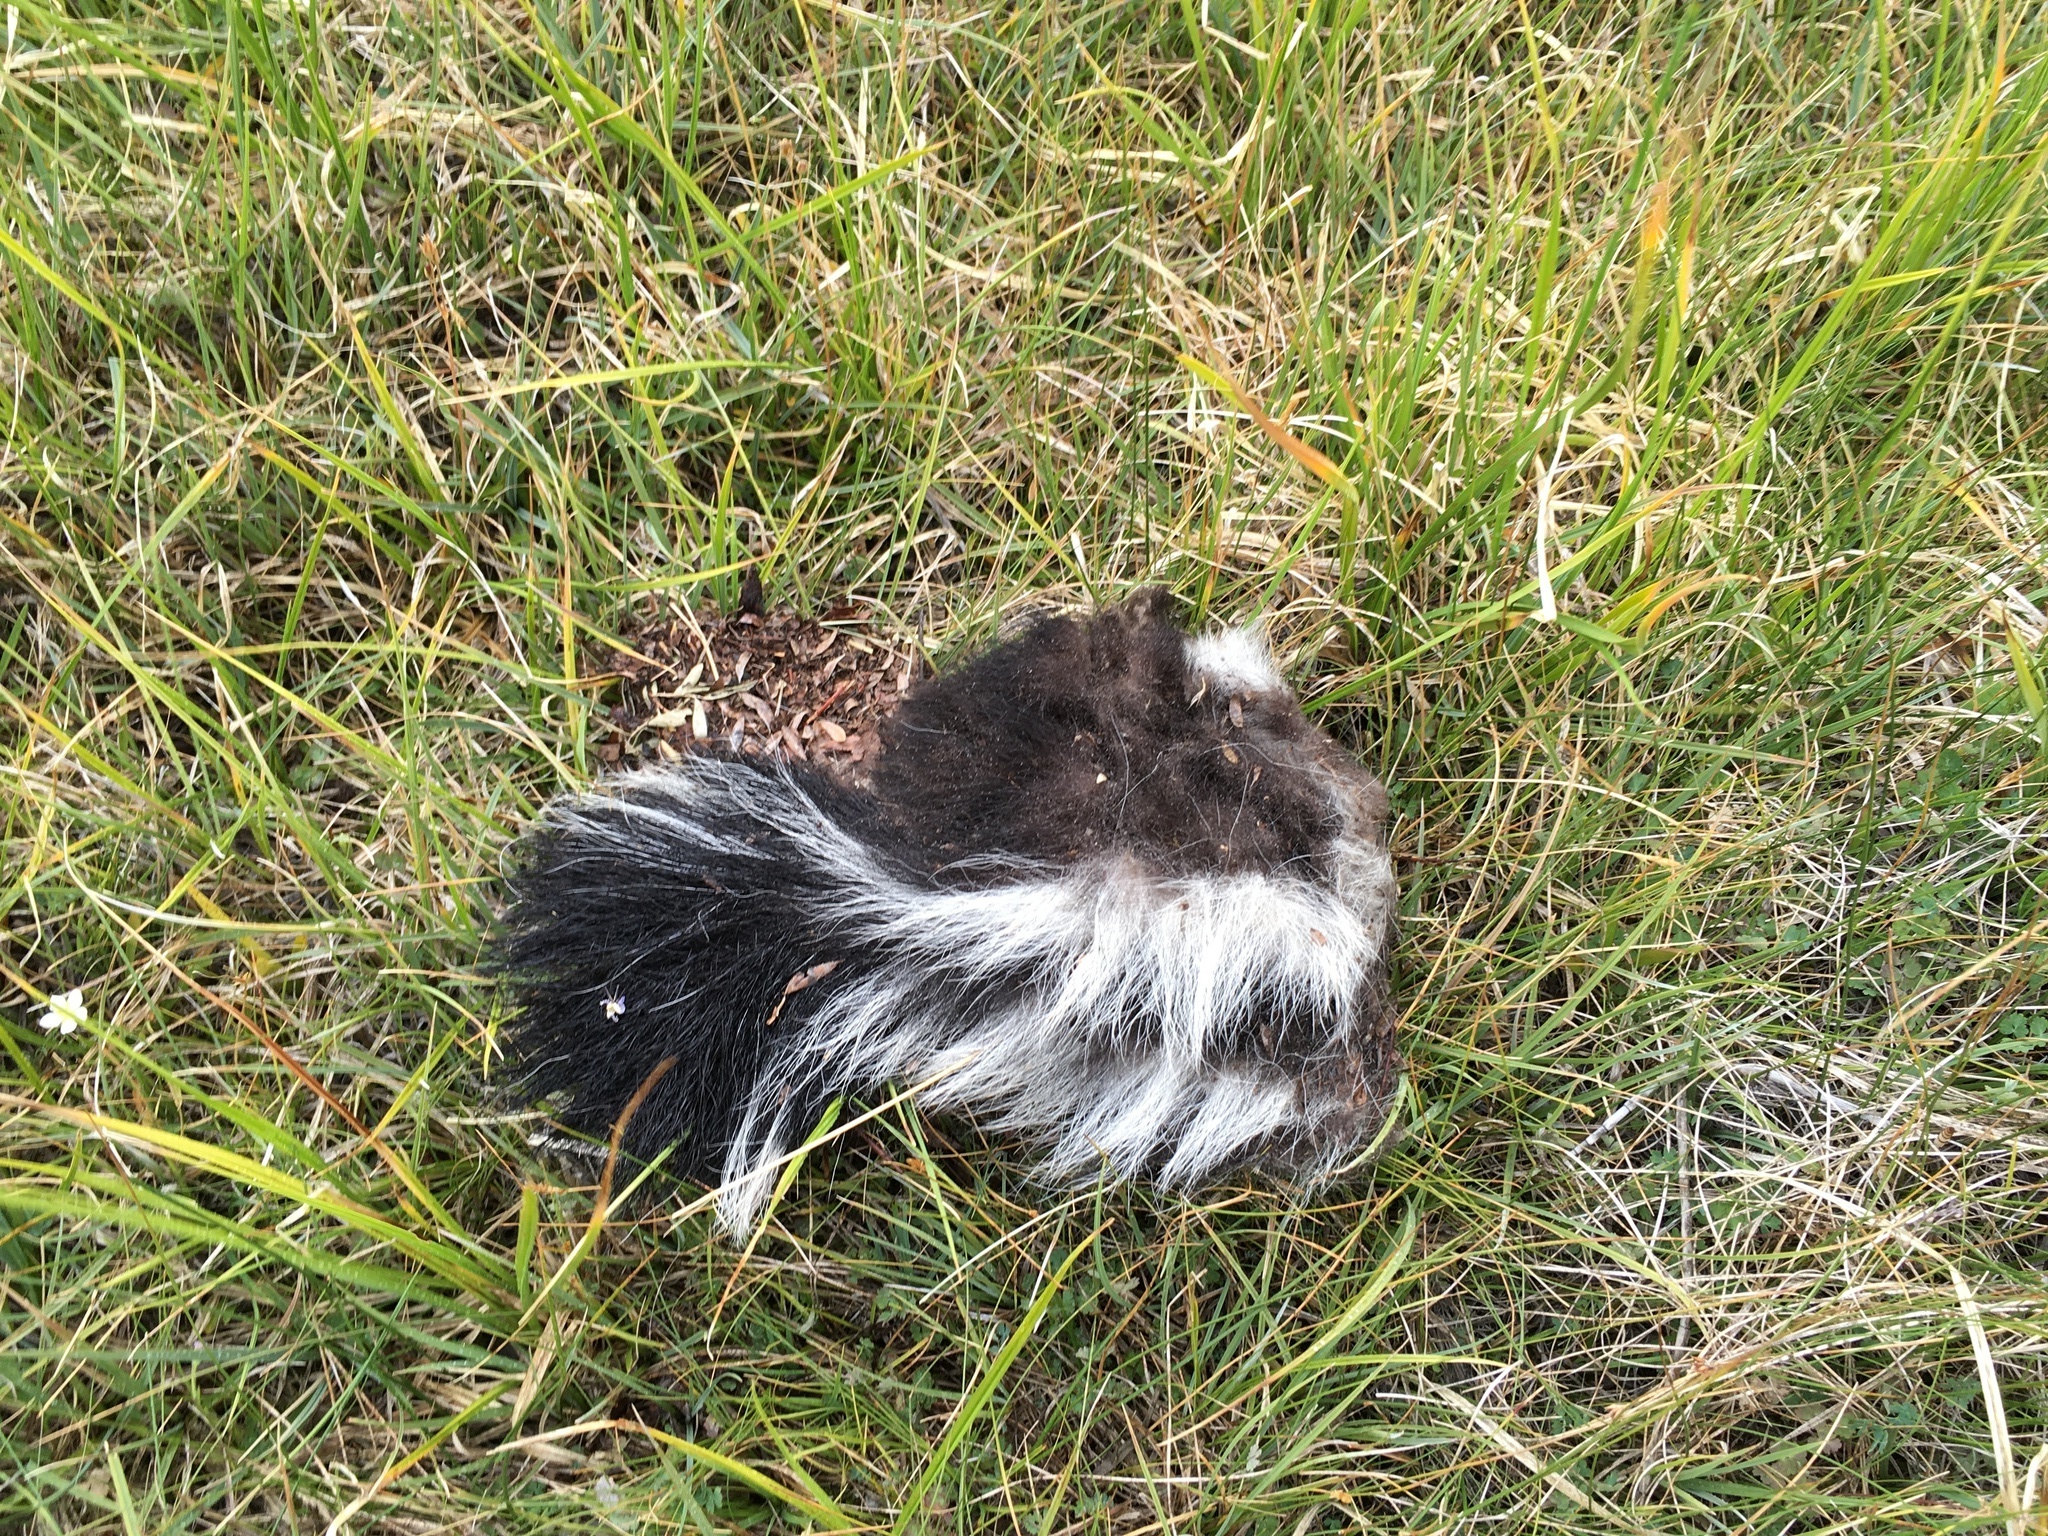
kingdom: Animalia
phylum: Chordata
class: Mammalia
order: Carnivora
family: Mephitidae
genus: Mephitis
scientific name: Mephitis mephitis
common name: Striped skunk
